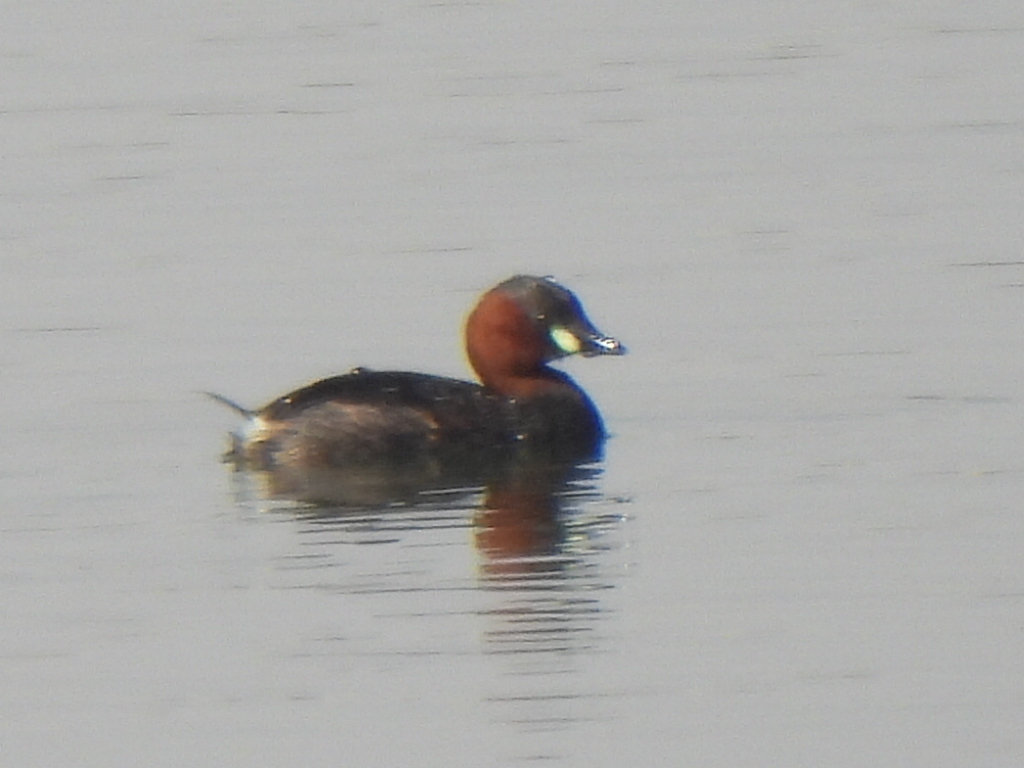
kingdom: Animalia
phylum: Chordata
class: Aves
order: Podicipediformes
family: Podicipedidae
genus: Tachybaptus
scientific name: Tachybaptus ruficollis
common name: Little grebe
